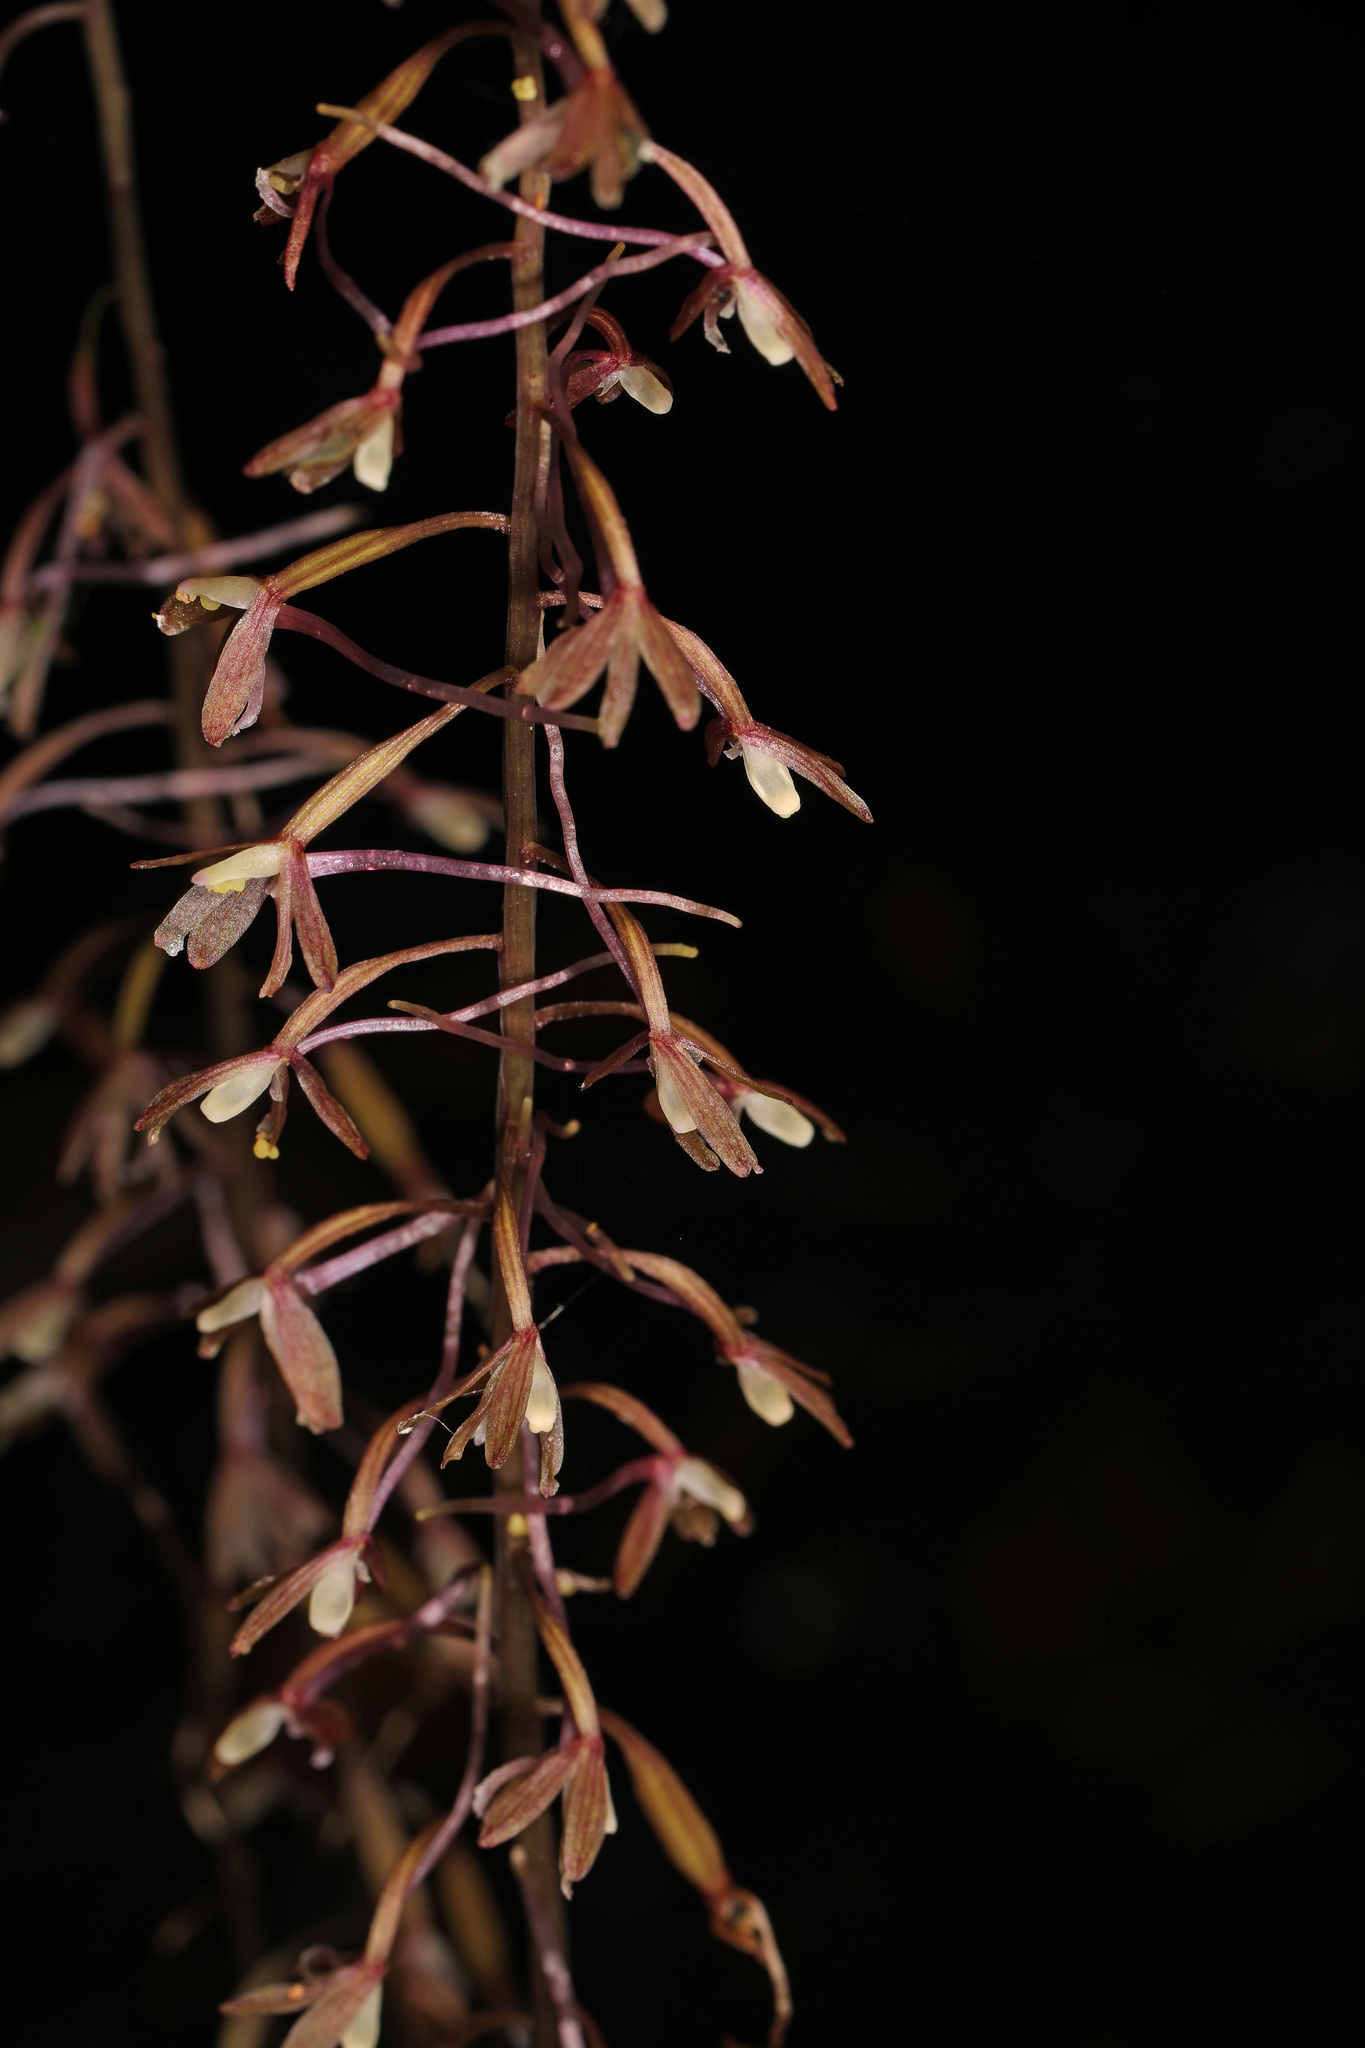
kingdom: Plantae
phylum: Tracheophyta
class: Liliopsida
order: Asparagales
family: Orchidaceae
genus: Tipularia
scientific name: Tipularia discolor
